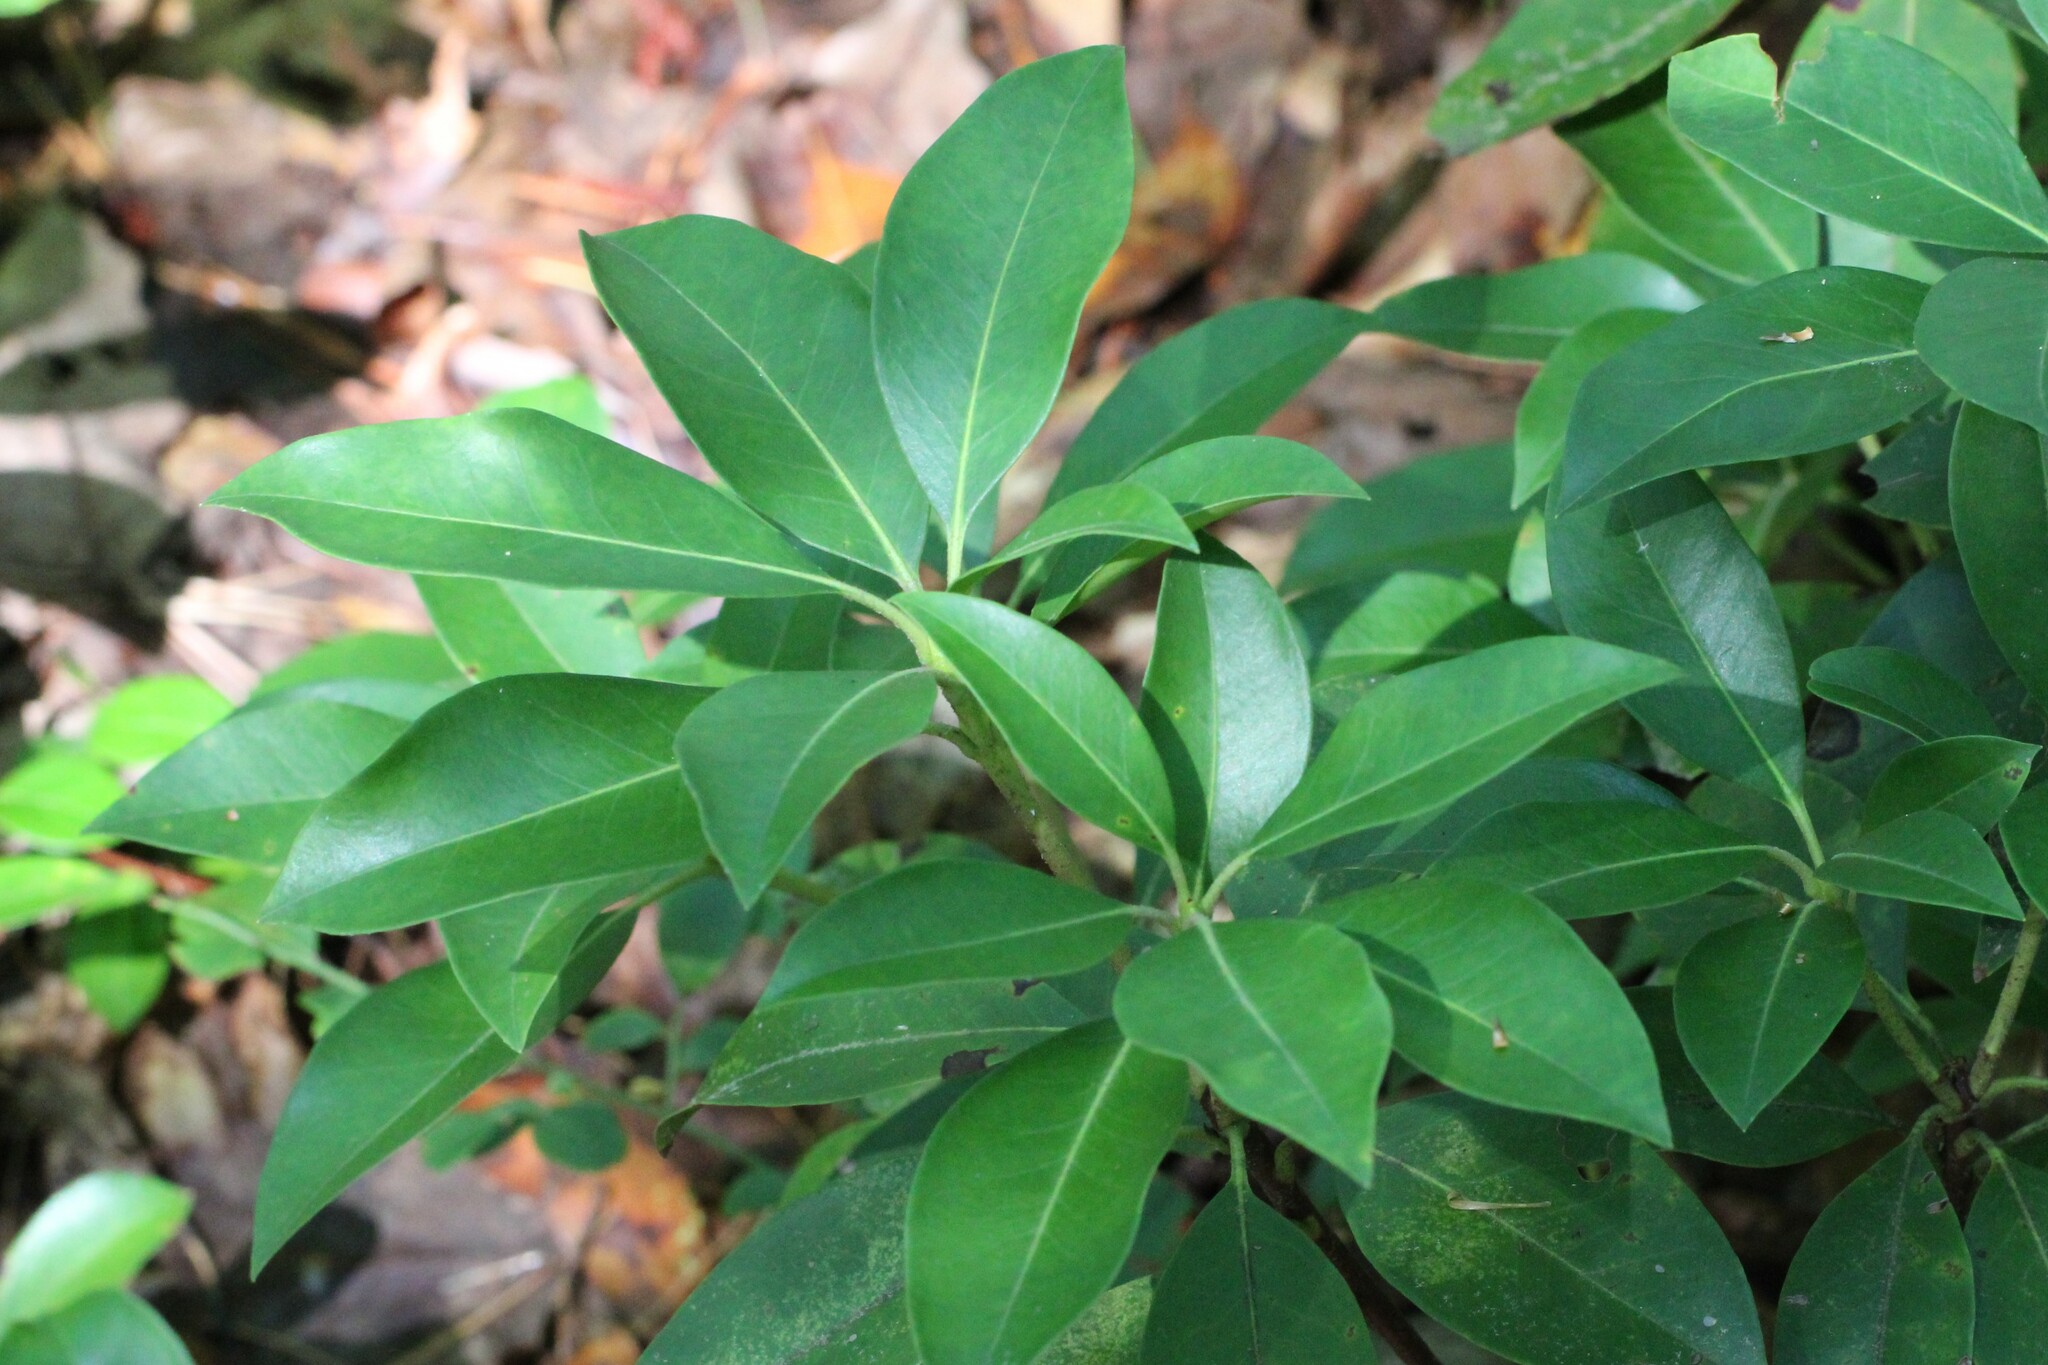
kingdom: Plantae
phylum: Tracheophyta
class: Magnoliopsida
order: Ericales
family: Ericaceae
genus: Kalmia
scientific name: Kalmia latifolia
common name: Mountain-laurel
